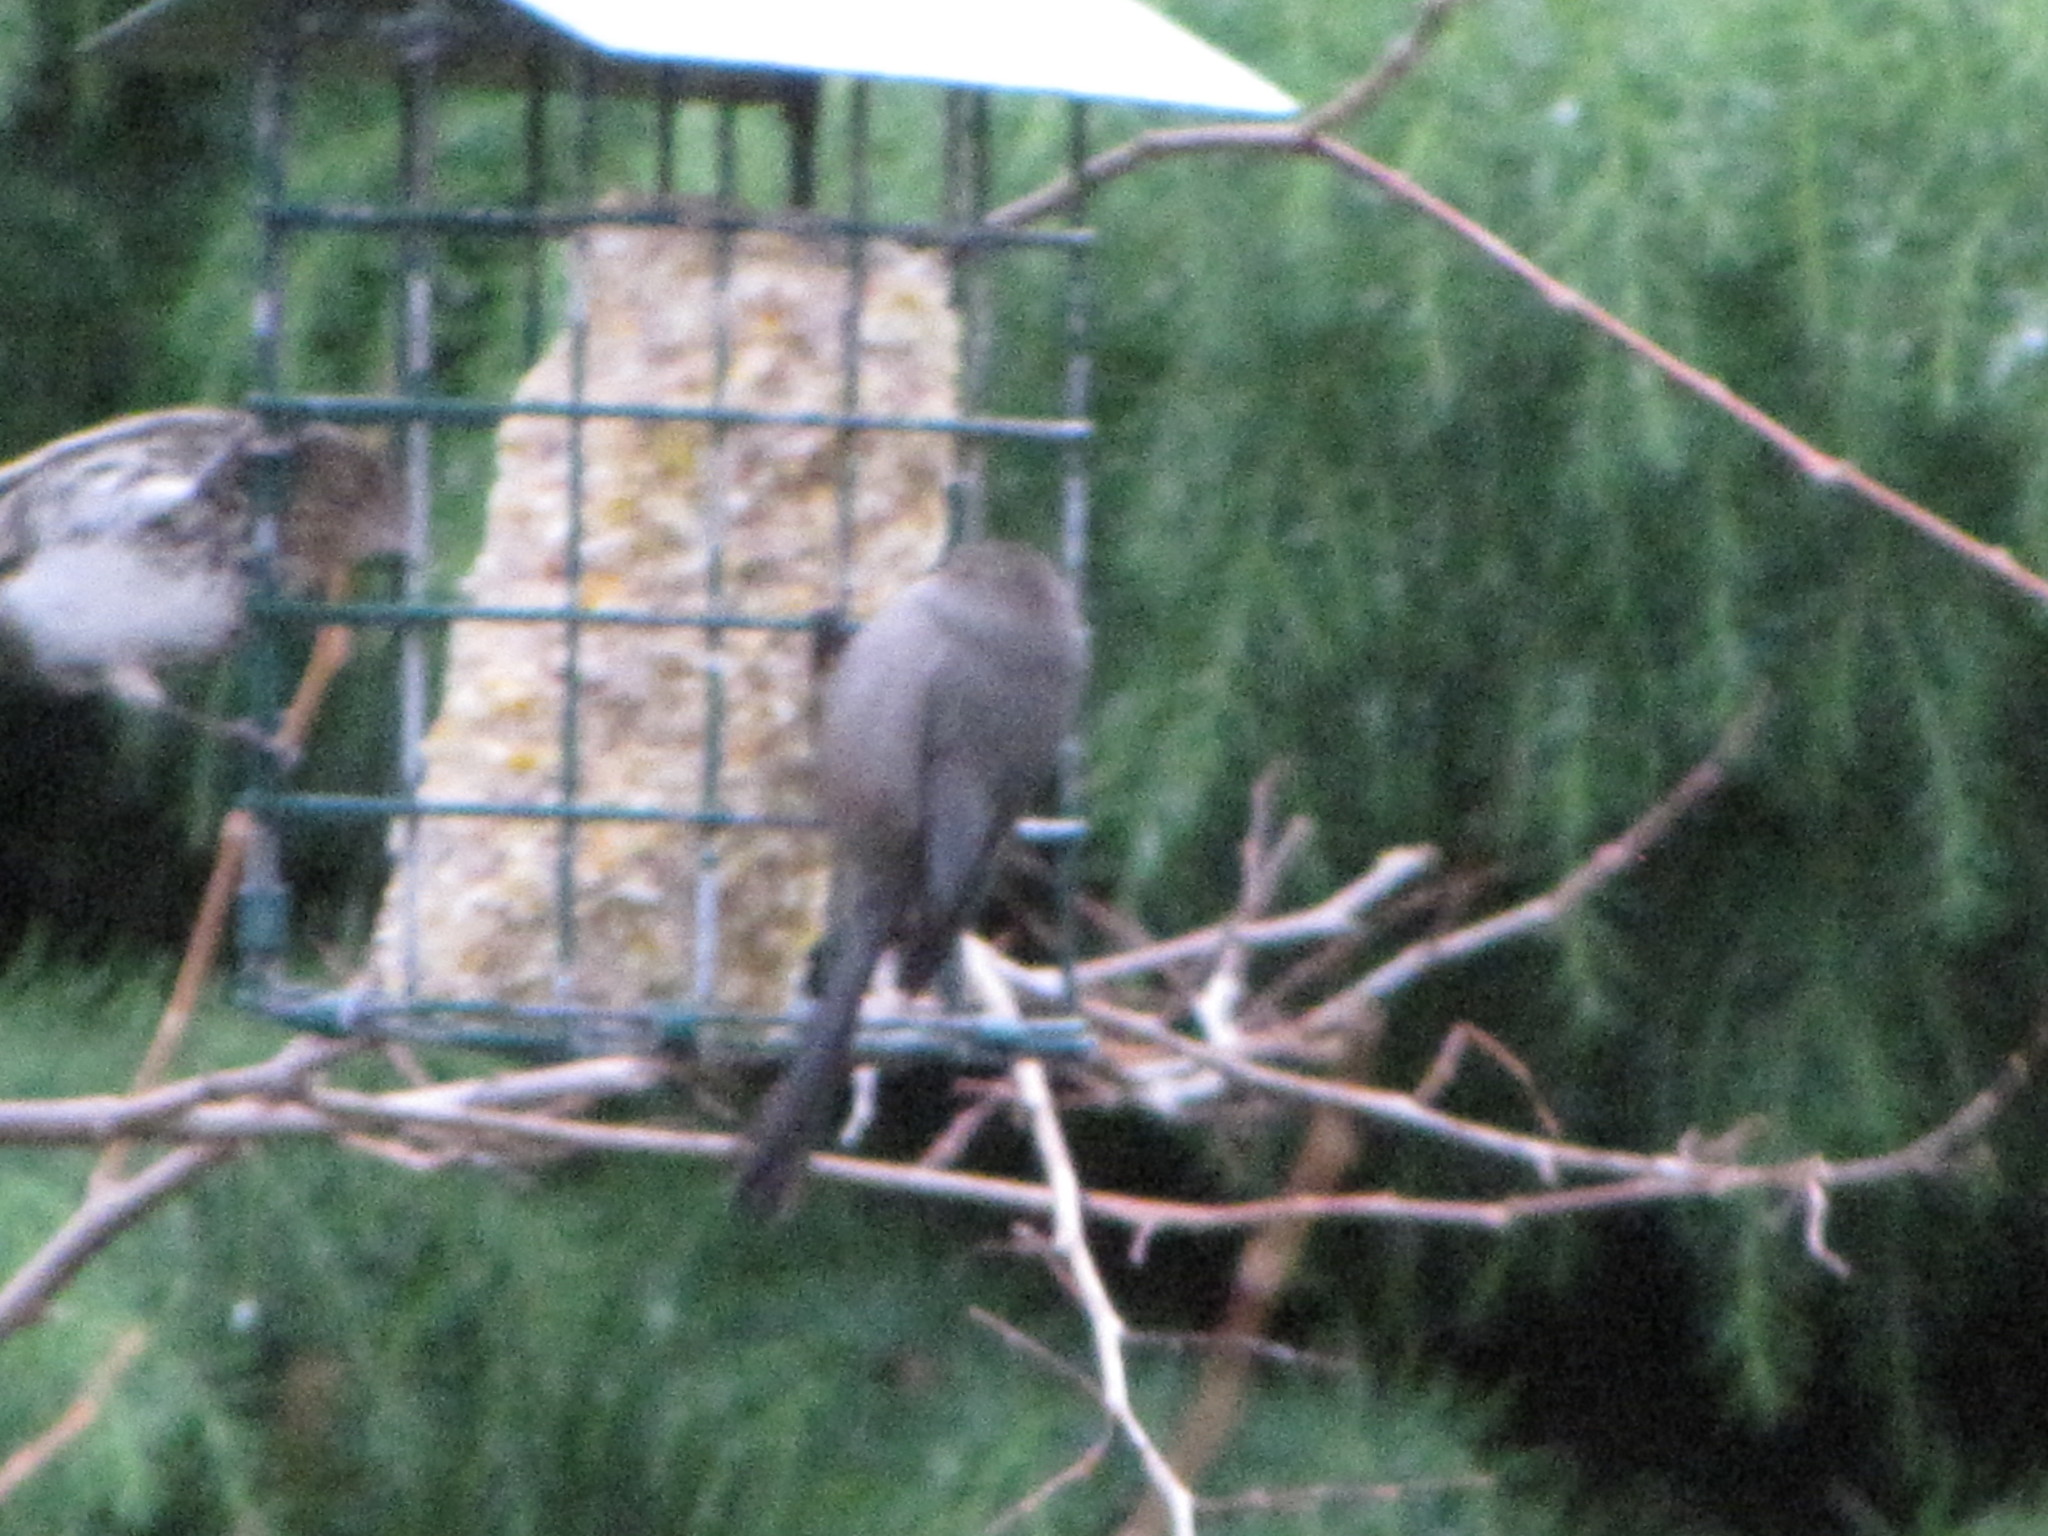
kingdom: Animalia
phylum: Chordata
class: Aves
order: Passeriformes
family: Aegithalidae
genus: Psaltriparus
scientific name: Psaltriparus minimus
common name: American bushtit
